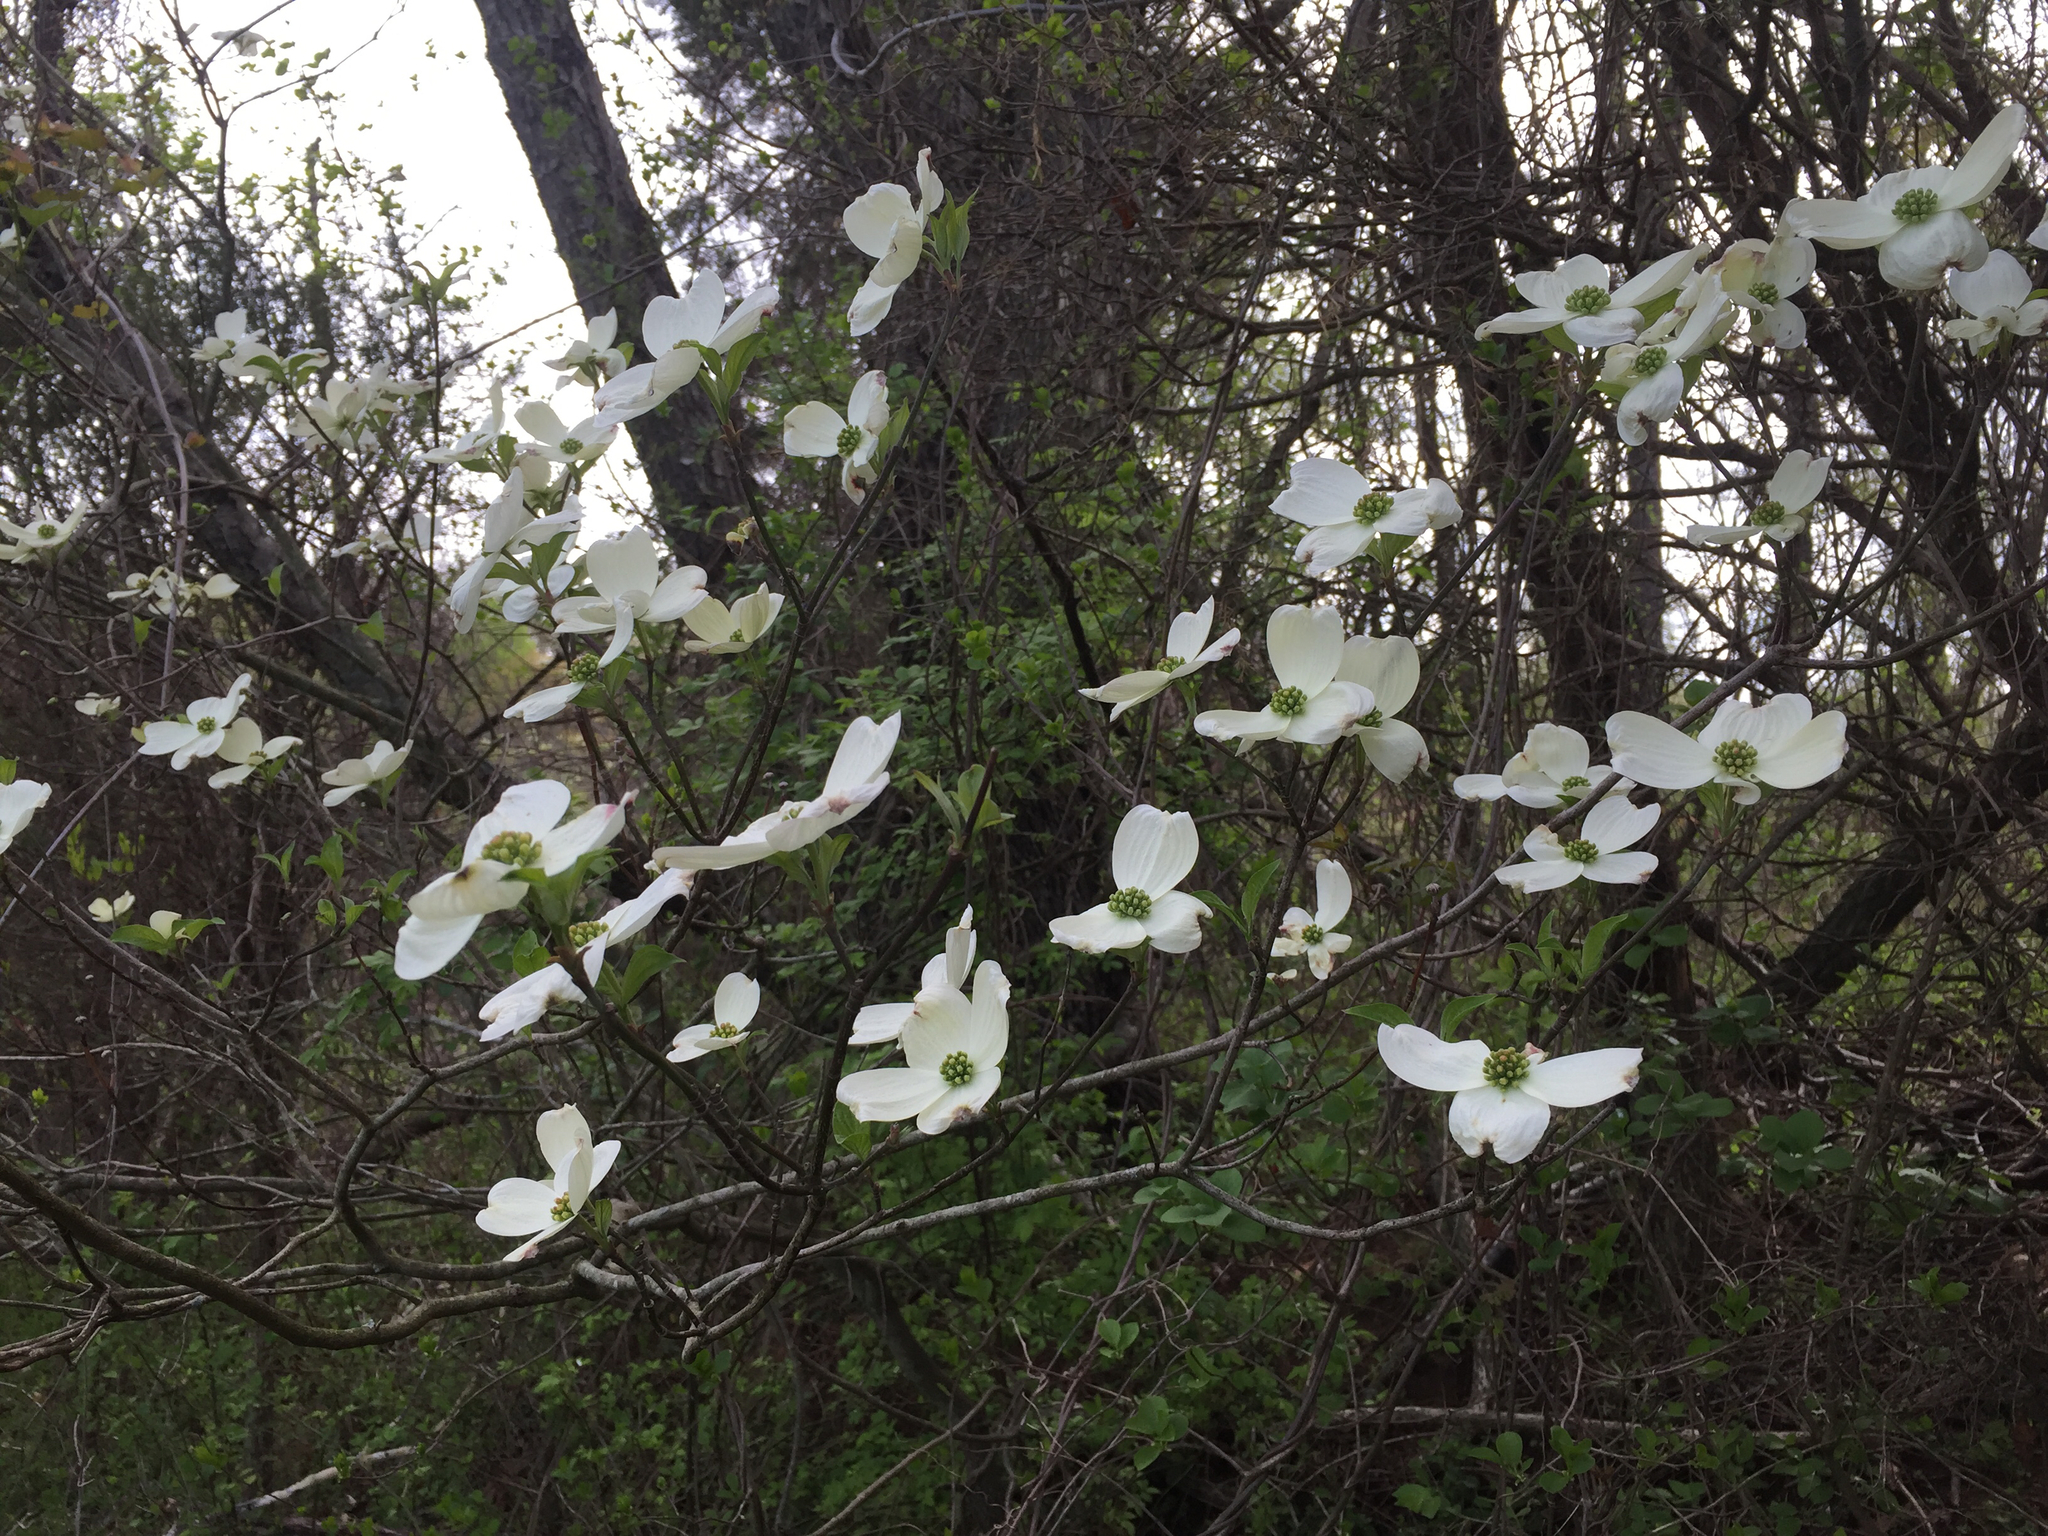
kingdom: Plantae
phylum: Tracheophyta
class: Magnoliopsida
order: Cornales
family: Cornaceae
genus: Cornus
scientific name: Cornus florida
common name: Flowering dogwood
